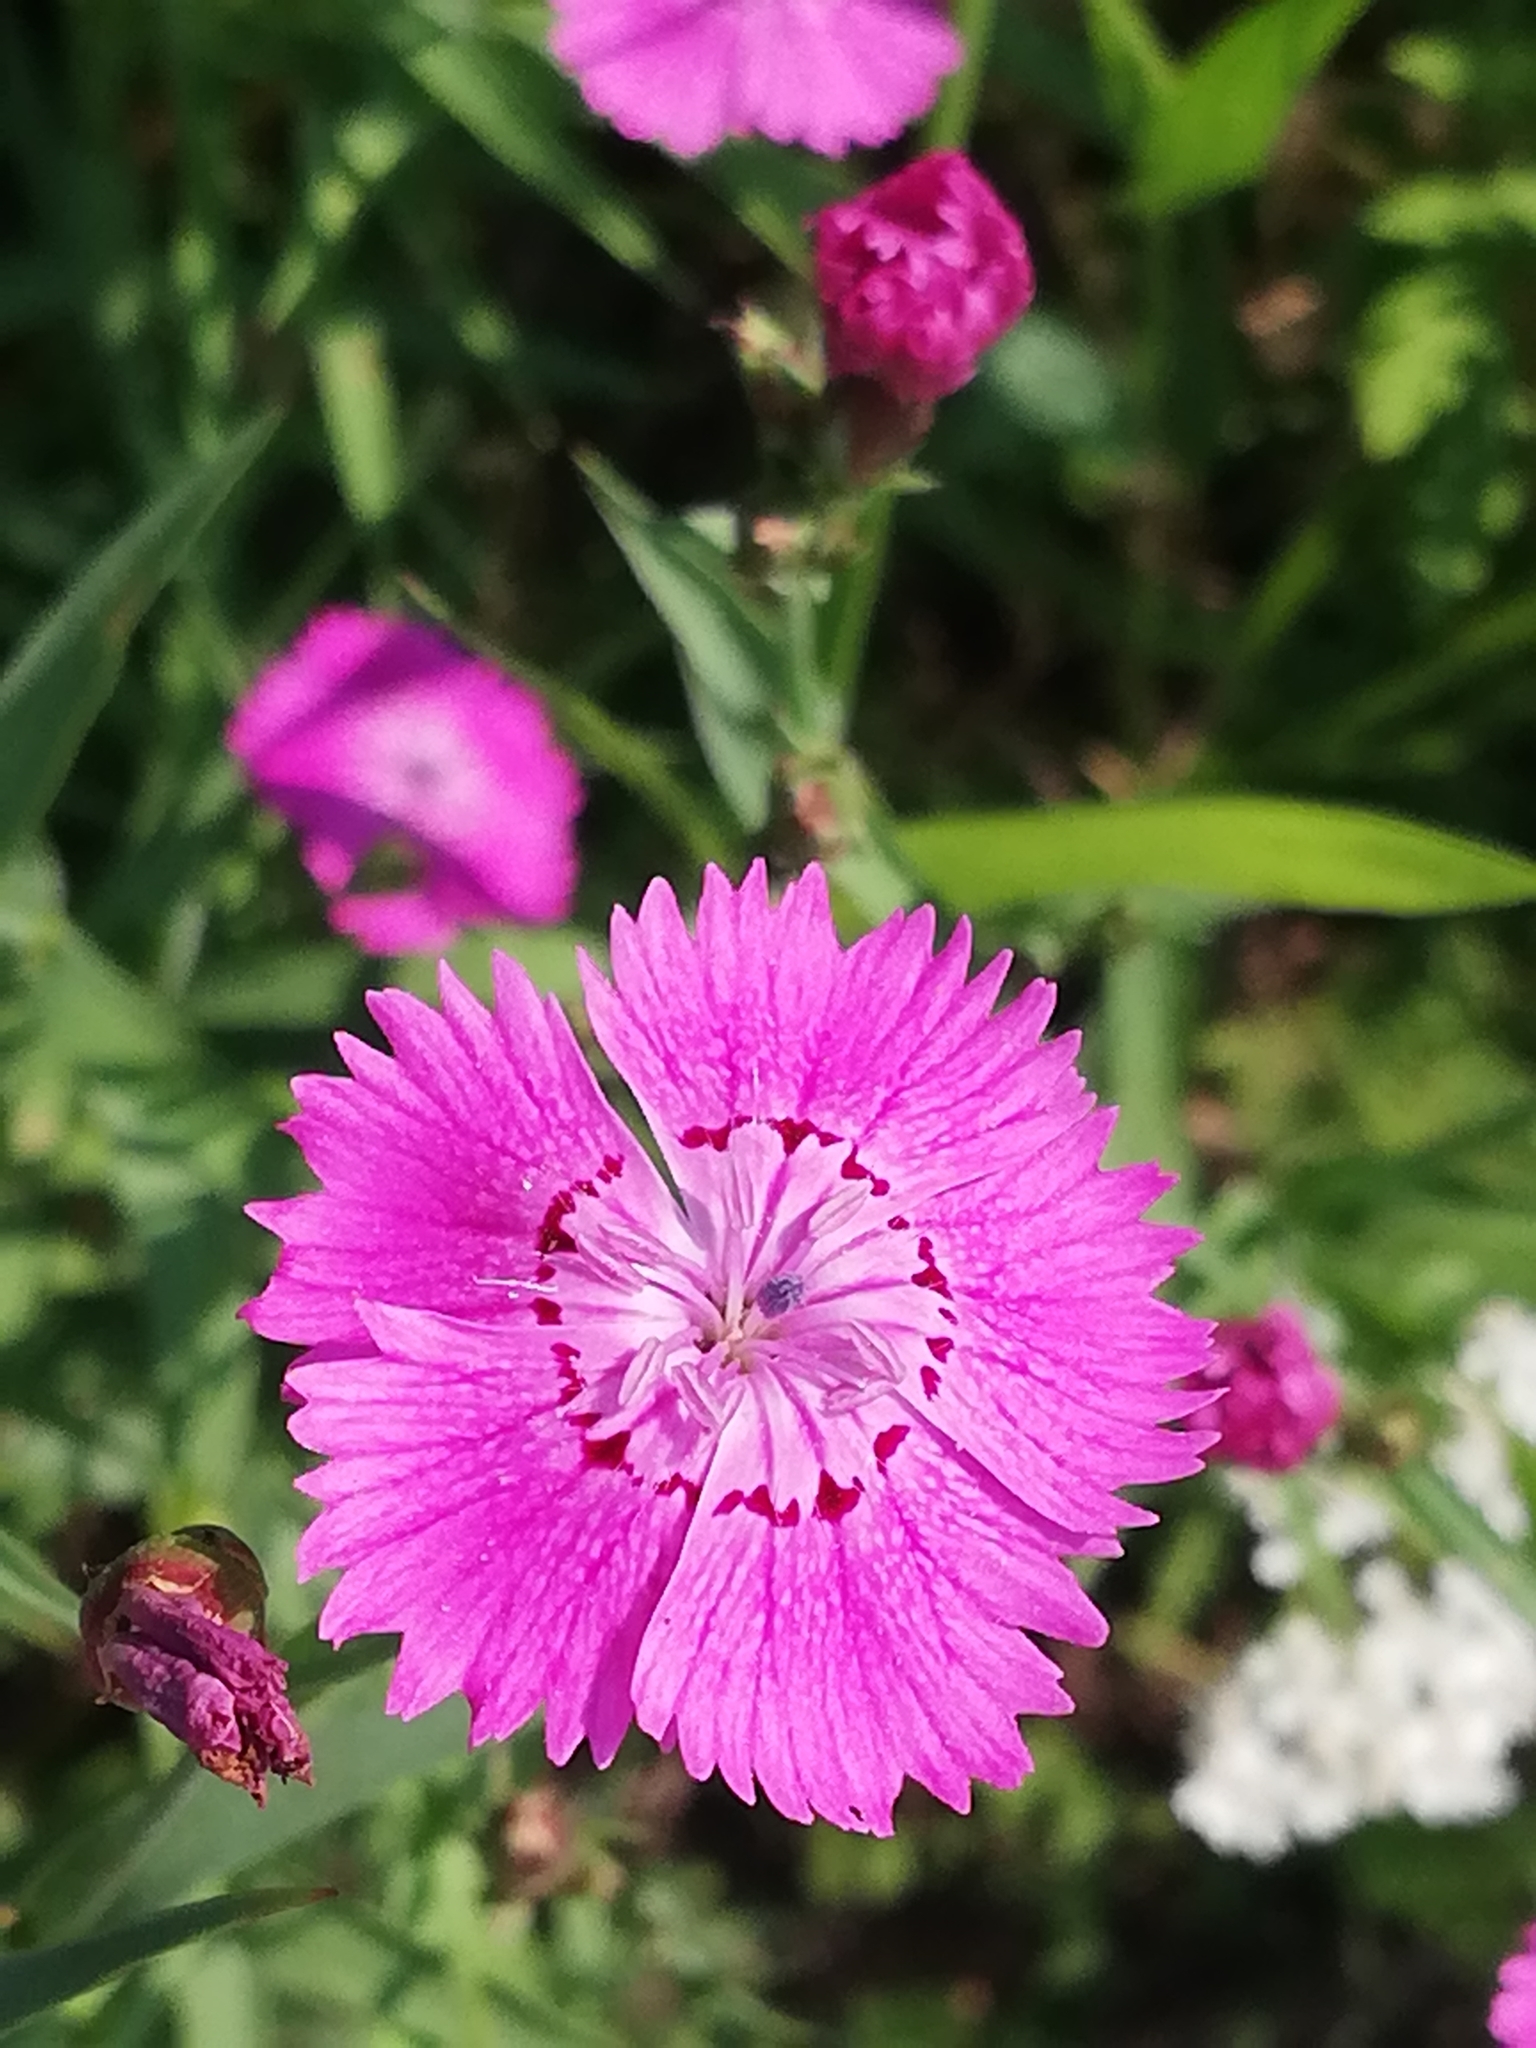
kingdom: Plantae
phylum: Tracheophyta
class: Magnoliopsida
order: Caryophyllales
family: Caryophyllaceae
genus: Dianthus
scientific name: Dianthus chinensis
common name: Rainbow pink
